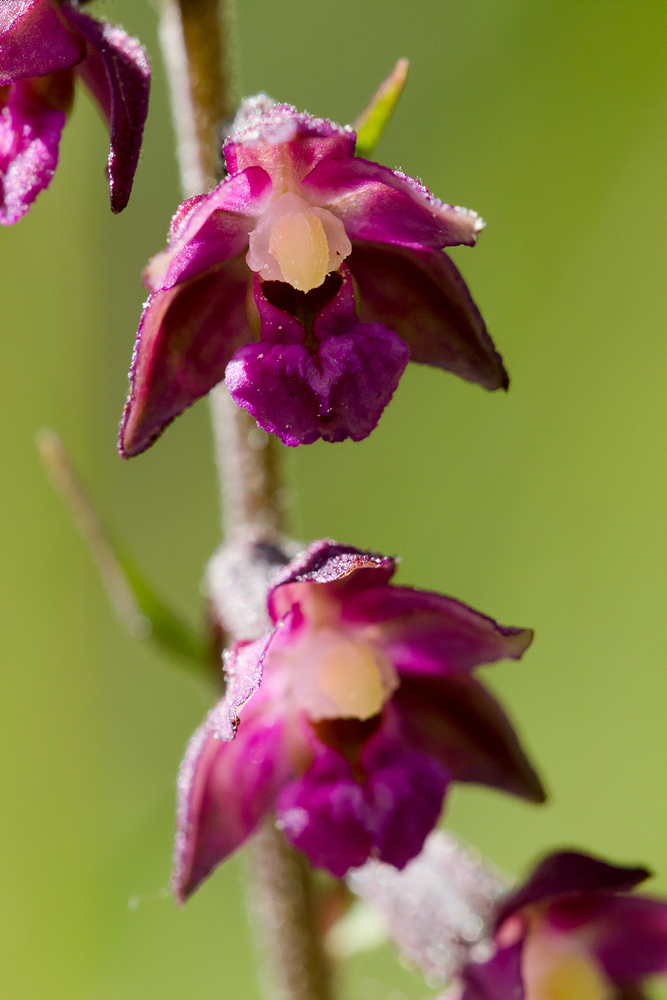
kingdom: Plantae
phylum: Tracheophyta
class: Liliopsida
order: Asparagales
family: Orchidaceae
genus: Epipactis
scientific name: Epipactis atrorubens
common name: Dark-red helleborine
